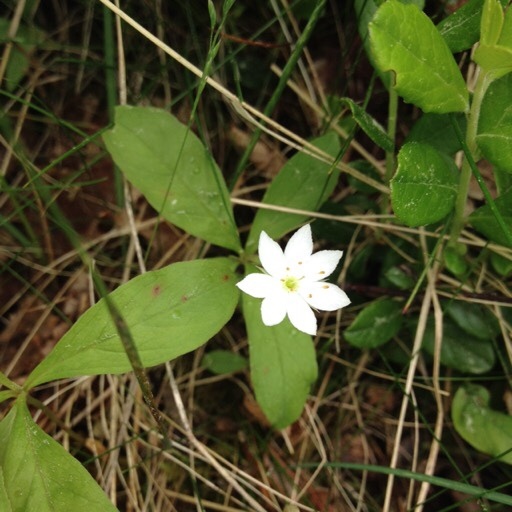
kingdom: Plantae
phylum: Tracheophyta
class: Magnoliopsida
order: Ericales
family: Primulaceae
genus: Lysimachia
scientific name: Lysimachia europaea
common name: Arctic starflower
